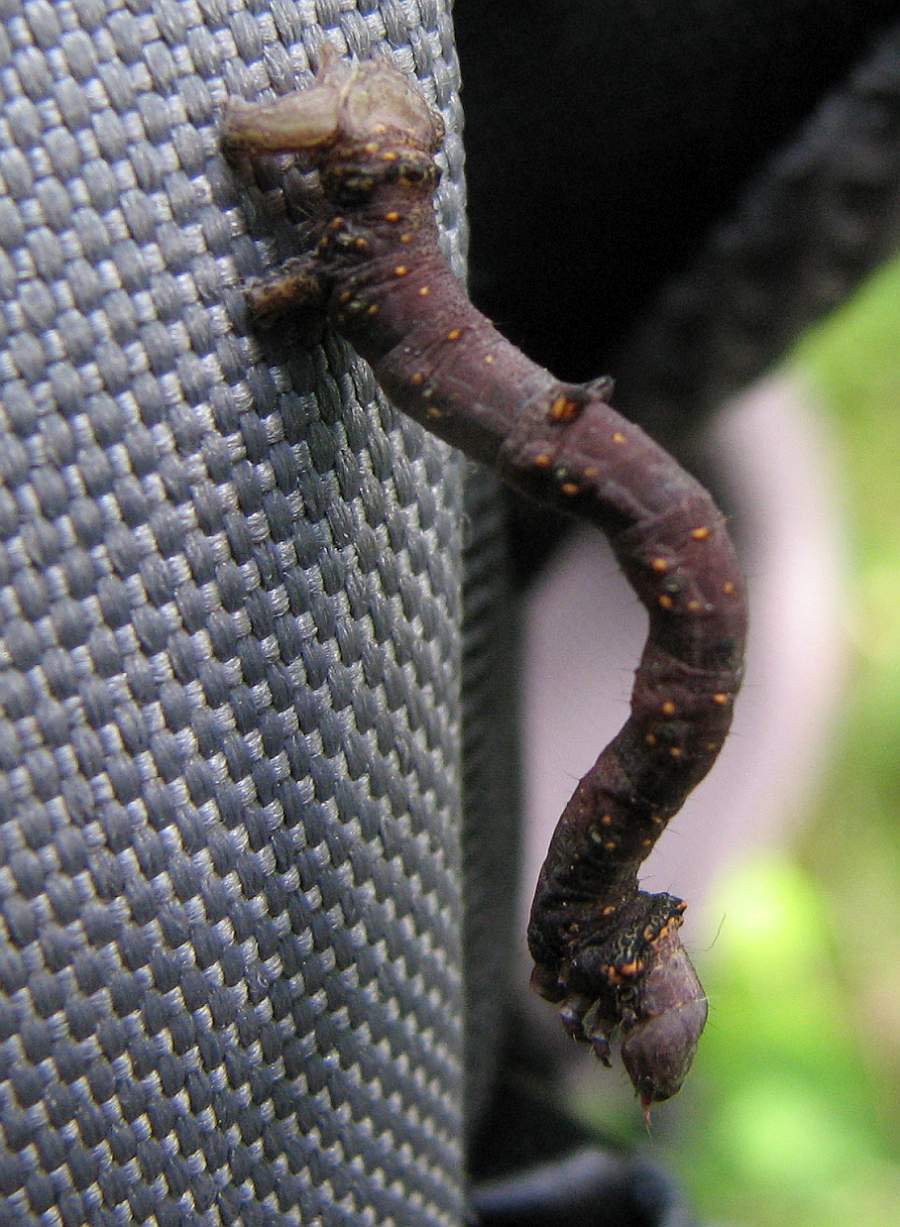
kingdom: Animalia
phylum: Arthropoda
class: Insecta
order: Lepidoptera
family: Geometridae
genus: Eutrapela
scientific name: Eutrapela clemataria
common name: Curved-toothed geometer
